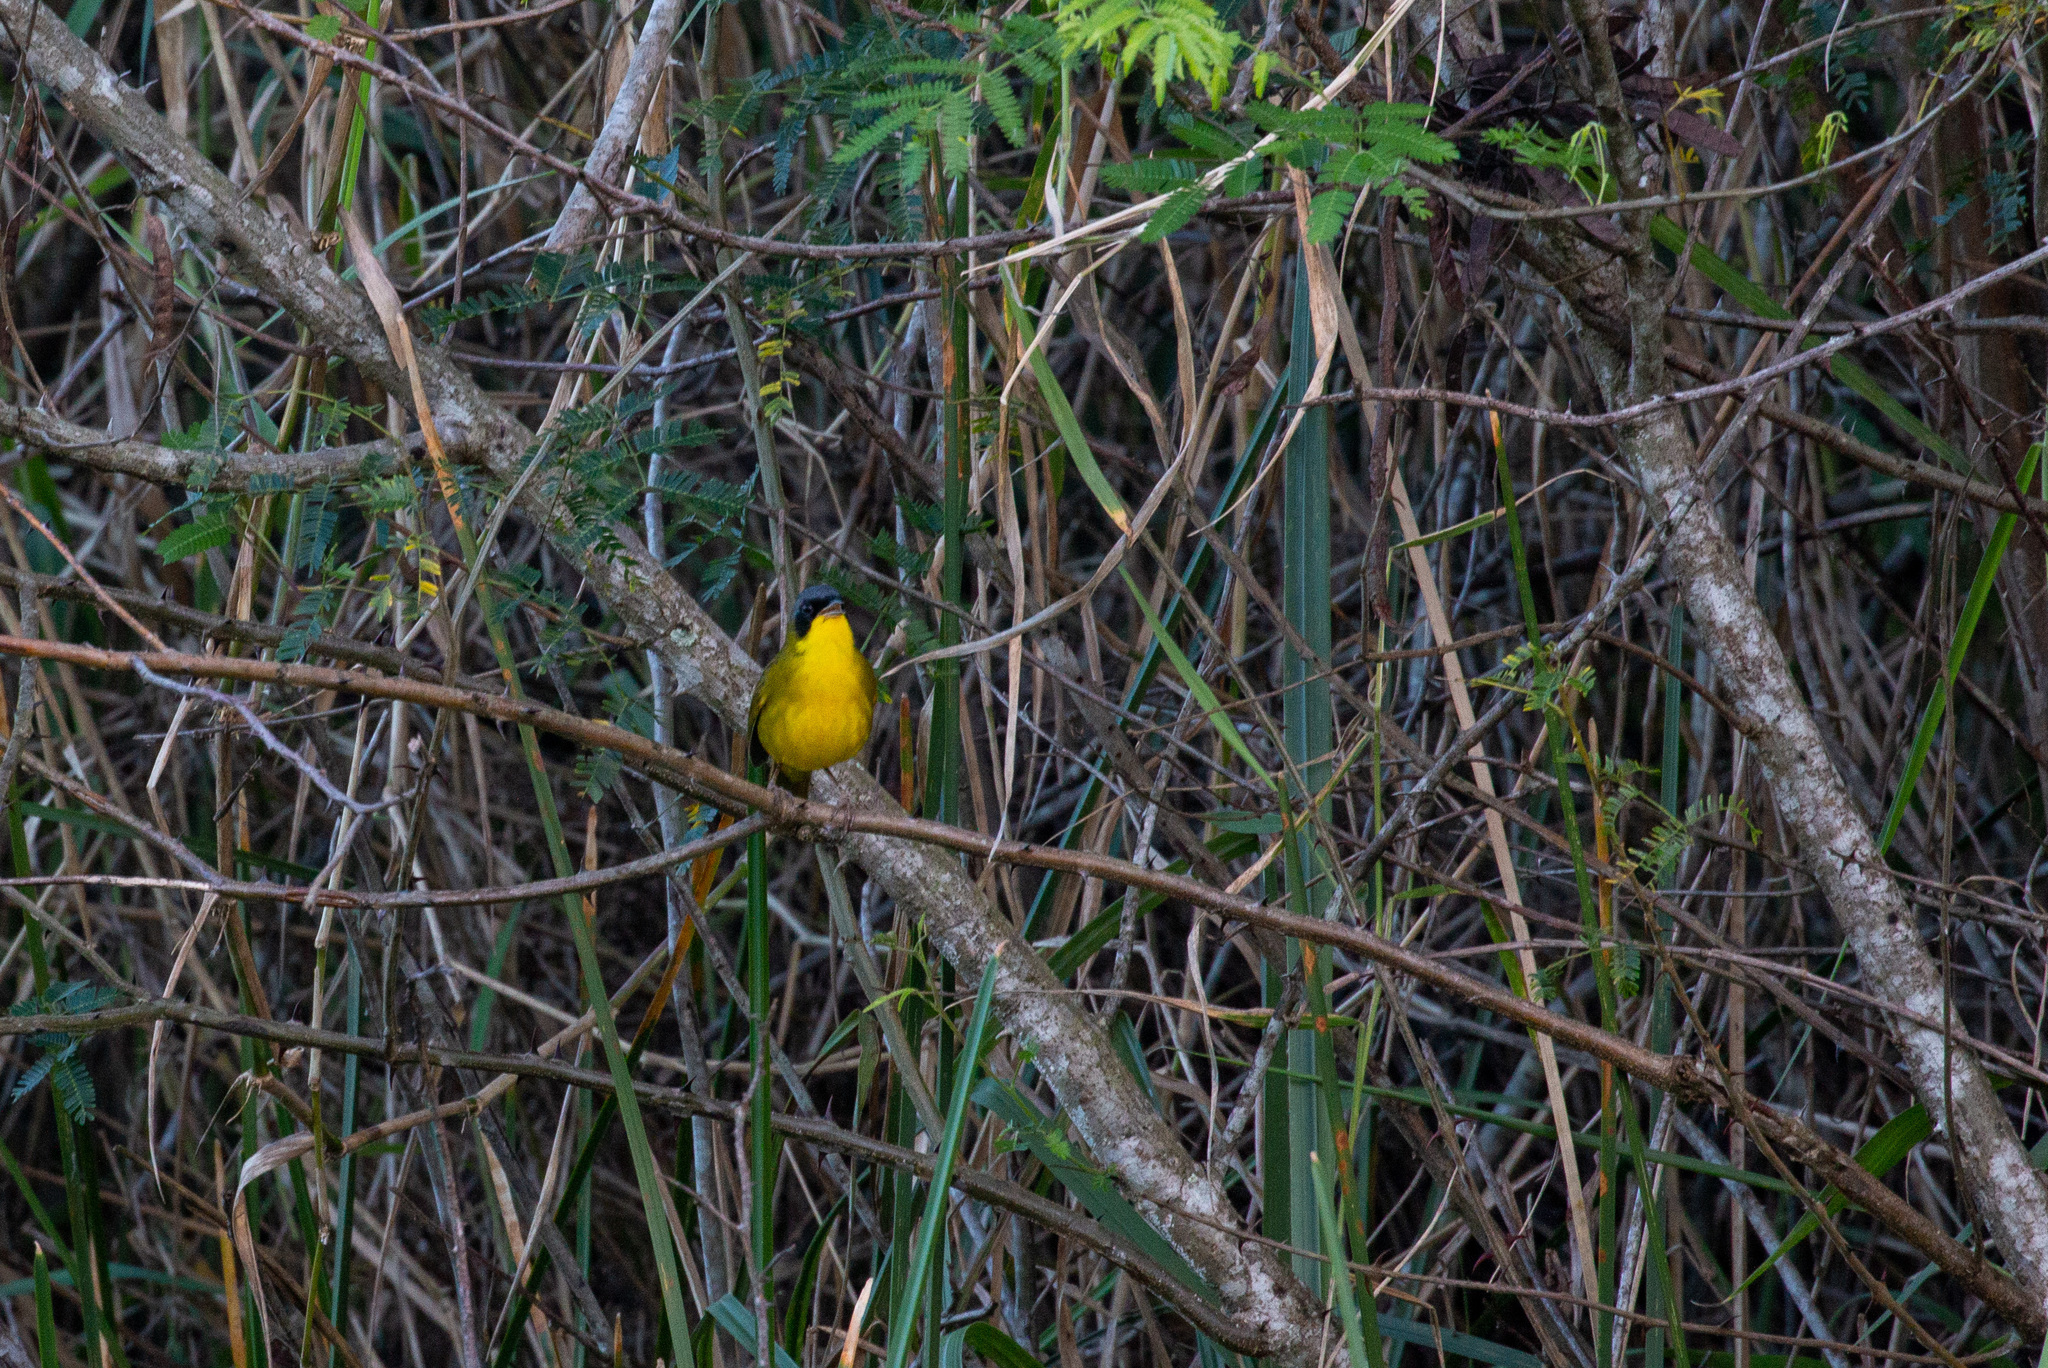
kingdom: Animalia
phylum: Chordata
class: Aves
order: Passeriformes
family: Parulidae
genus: Geothlypis
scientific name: Geothlypis velata
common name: Southern yellowthroat
